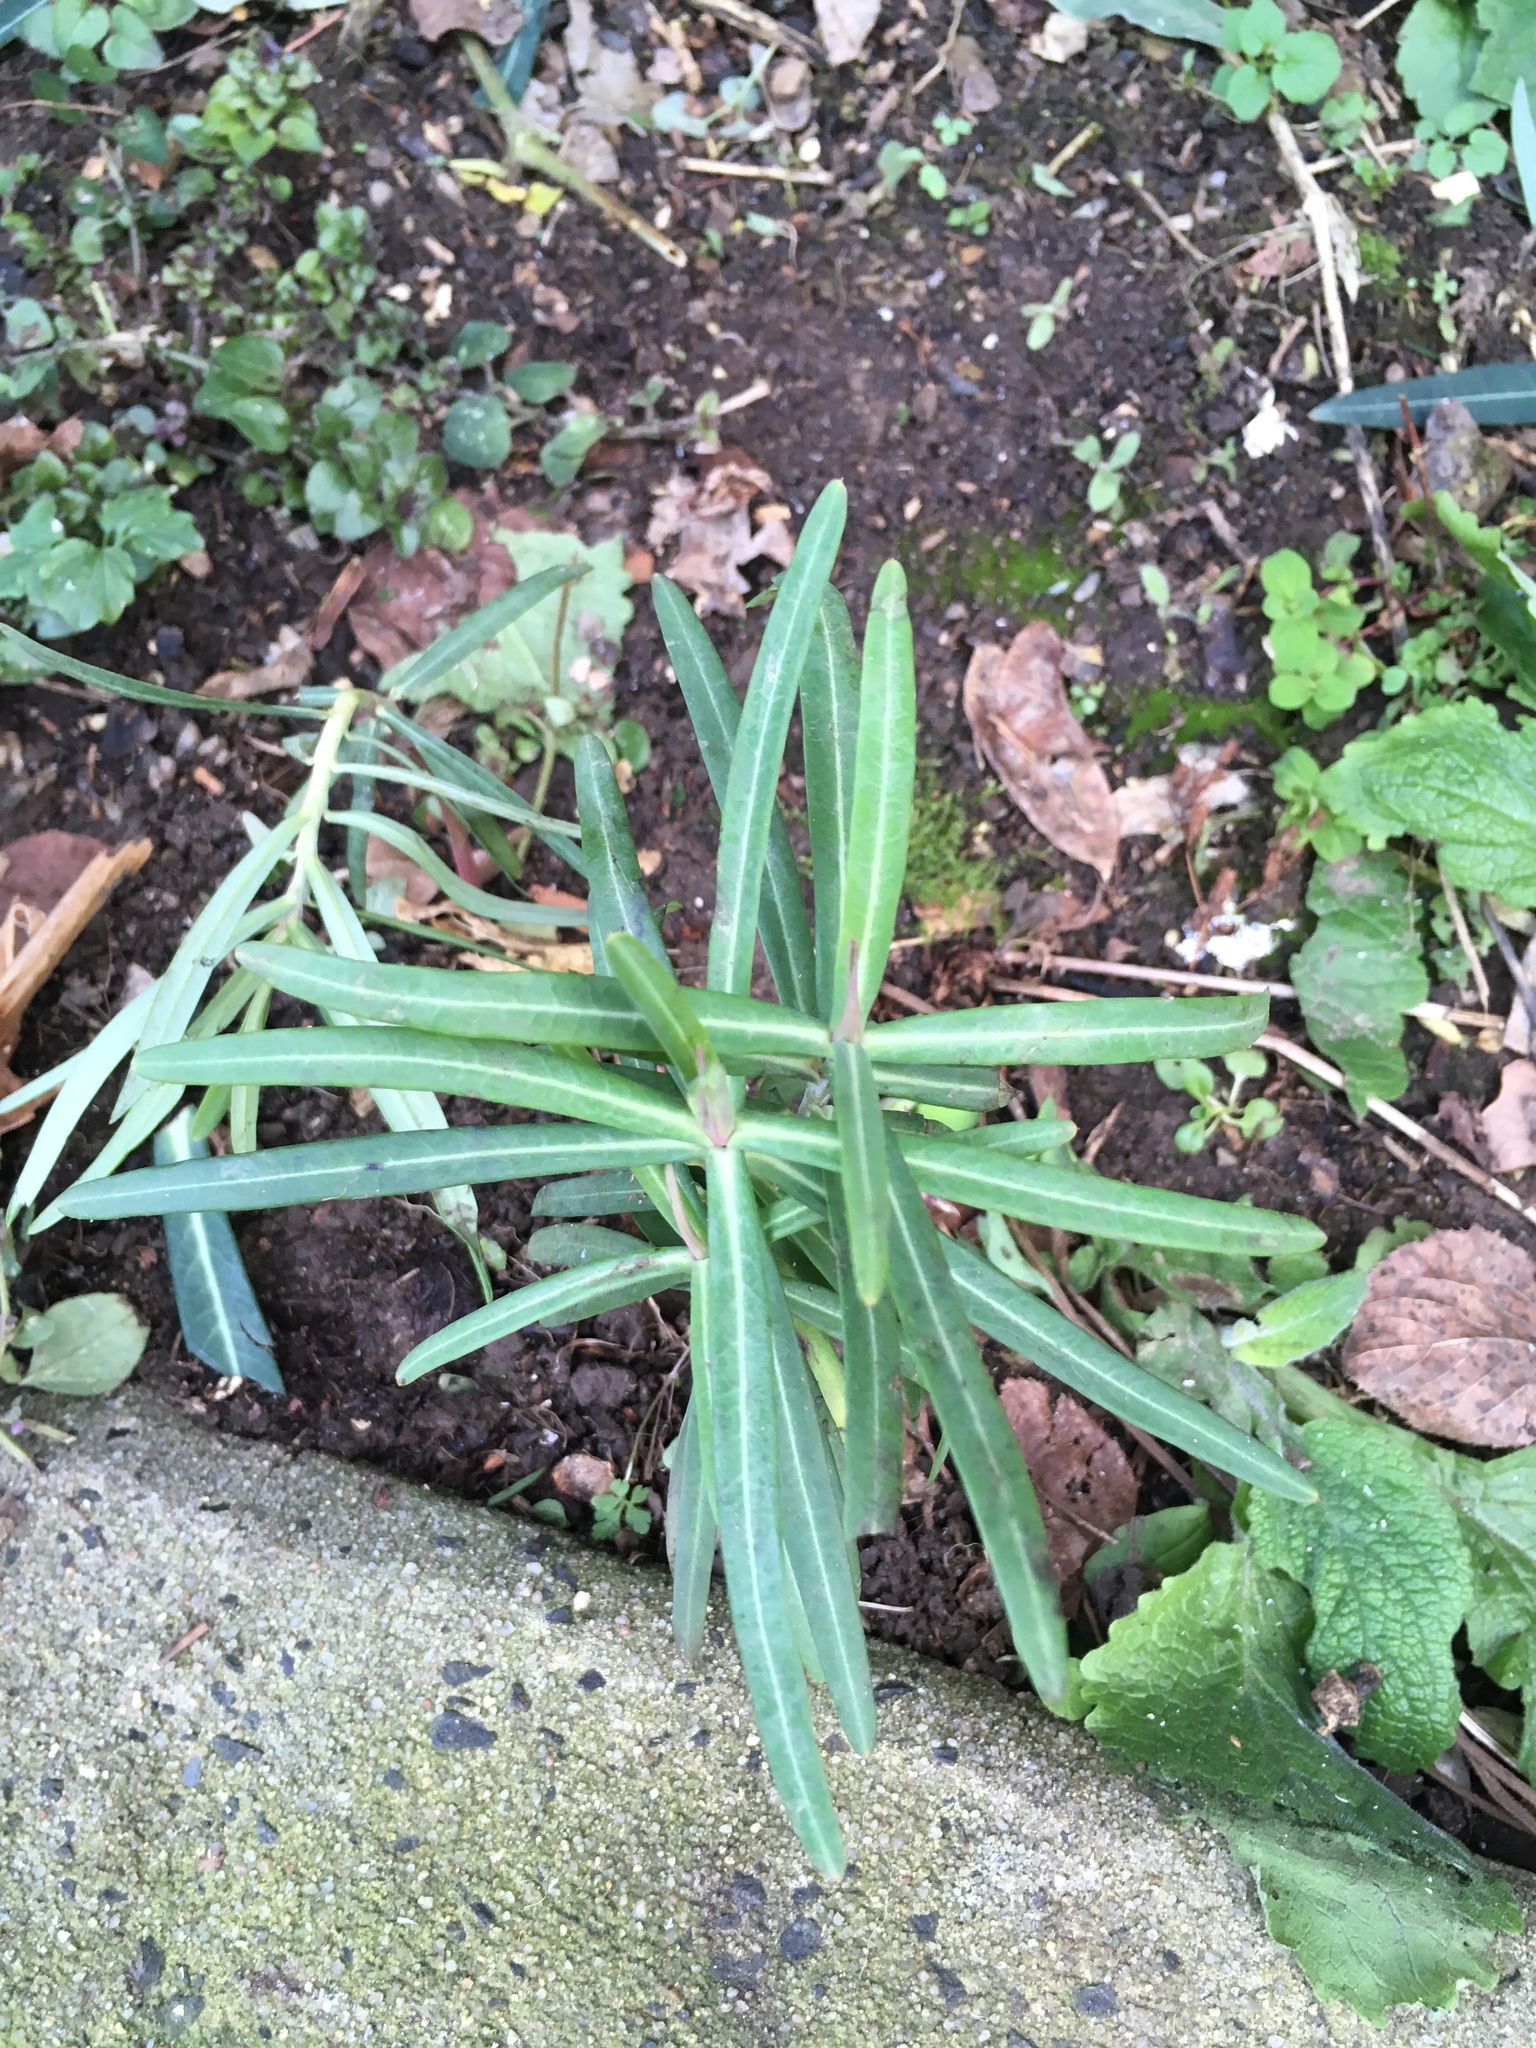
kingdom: Plantae
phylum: Tracheophyta
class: Magnoliopsida
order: Malpighiales
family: Euphorbiaceae
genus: Euphorbia
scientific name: Euphorbia lathyris
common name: Caper spurge
